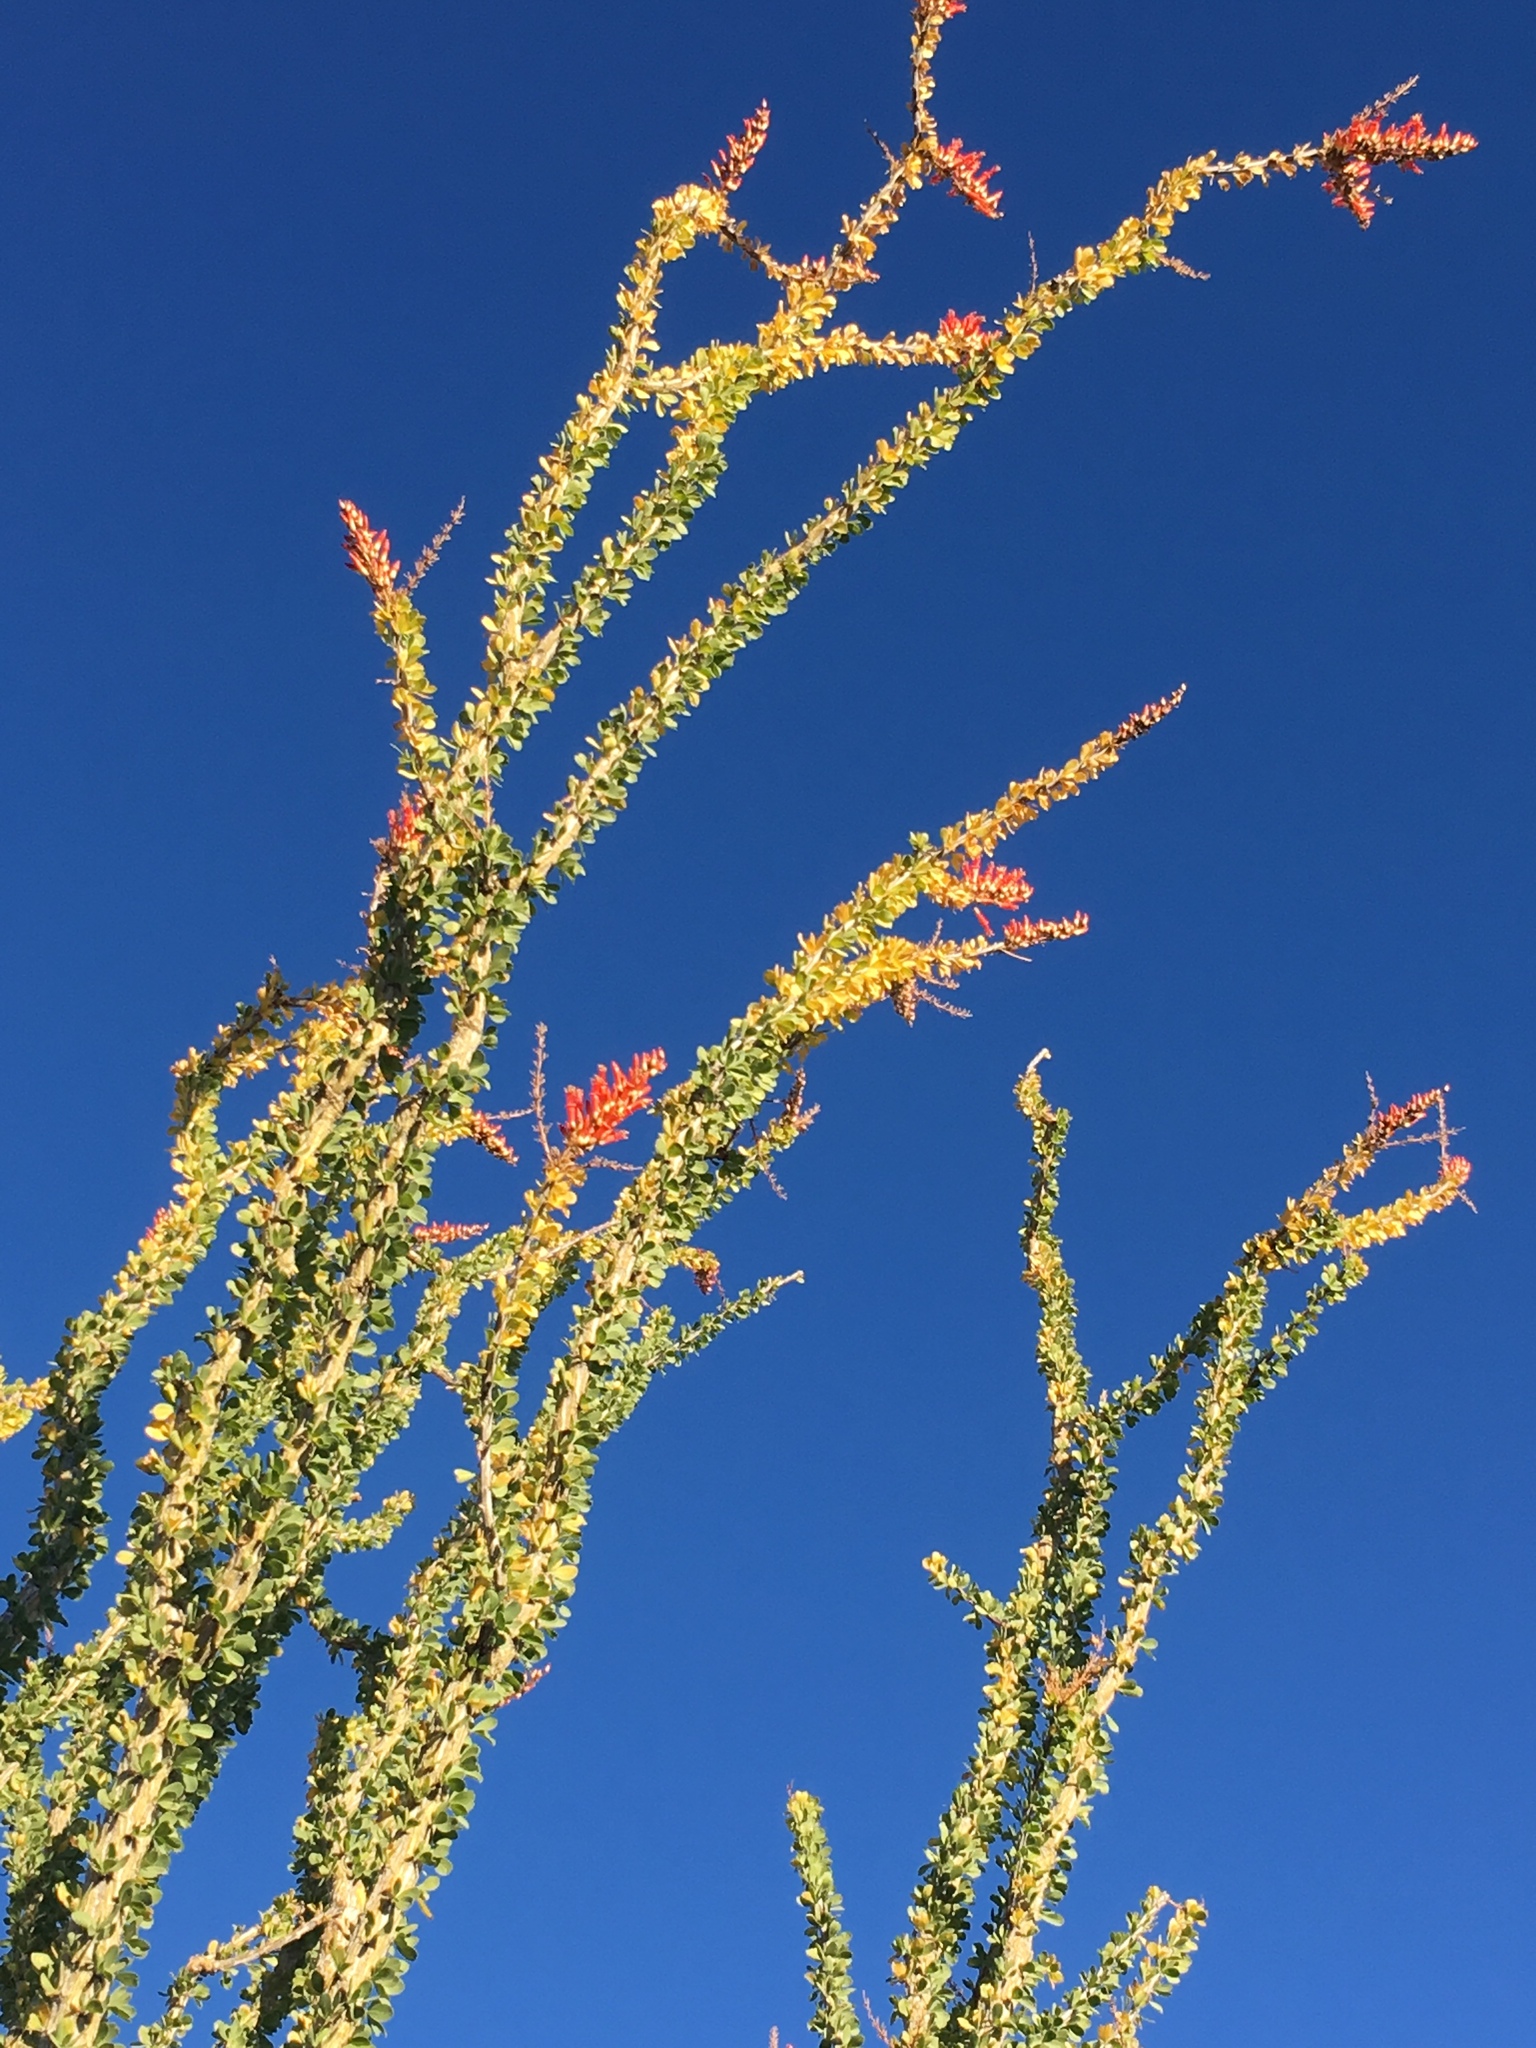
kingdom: Plantae
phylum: Tracheophyta
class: Magnoliopsida
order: Ericales
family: Fouquieriaceae
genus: Fouquieria
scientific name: Fouquieria splendens
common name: Vine-cactus
